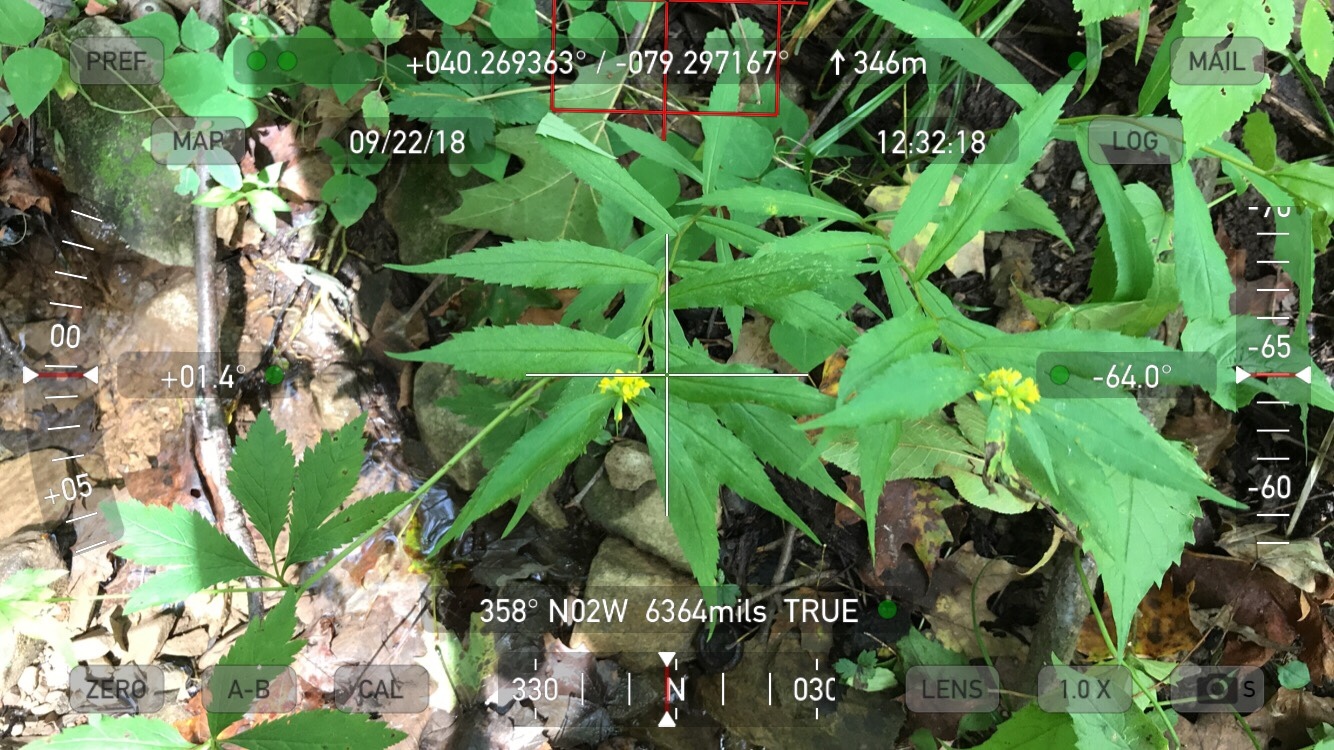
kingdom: Plantae
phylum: Tracheophyta
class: Magnoliopsida
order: Asterales
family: Asteraceae
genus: Solidago
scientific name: Solidago caesia
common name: Woodland goldenrod
